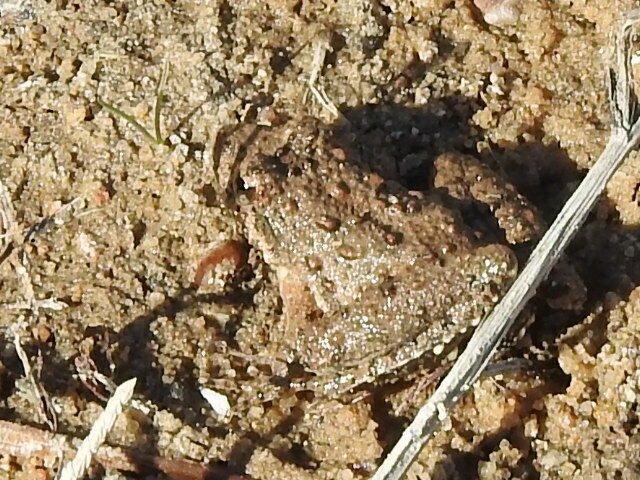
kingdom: Animalia
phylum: Chordata
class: Amphibia
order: Anura
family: Hylidae
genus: Acris
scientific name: Acris blanchardi
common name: Blanchard's cricket frog
